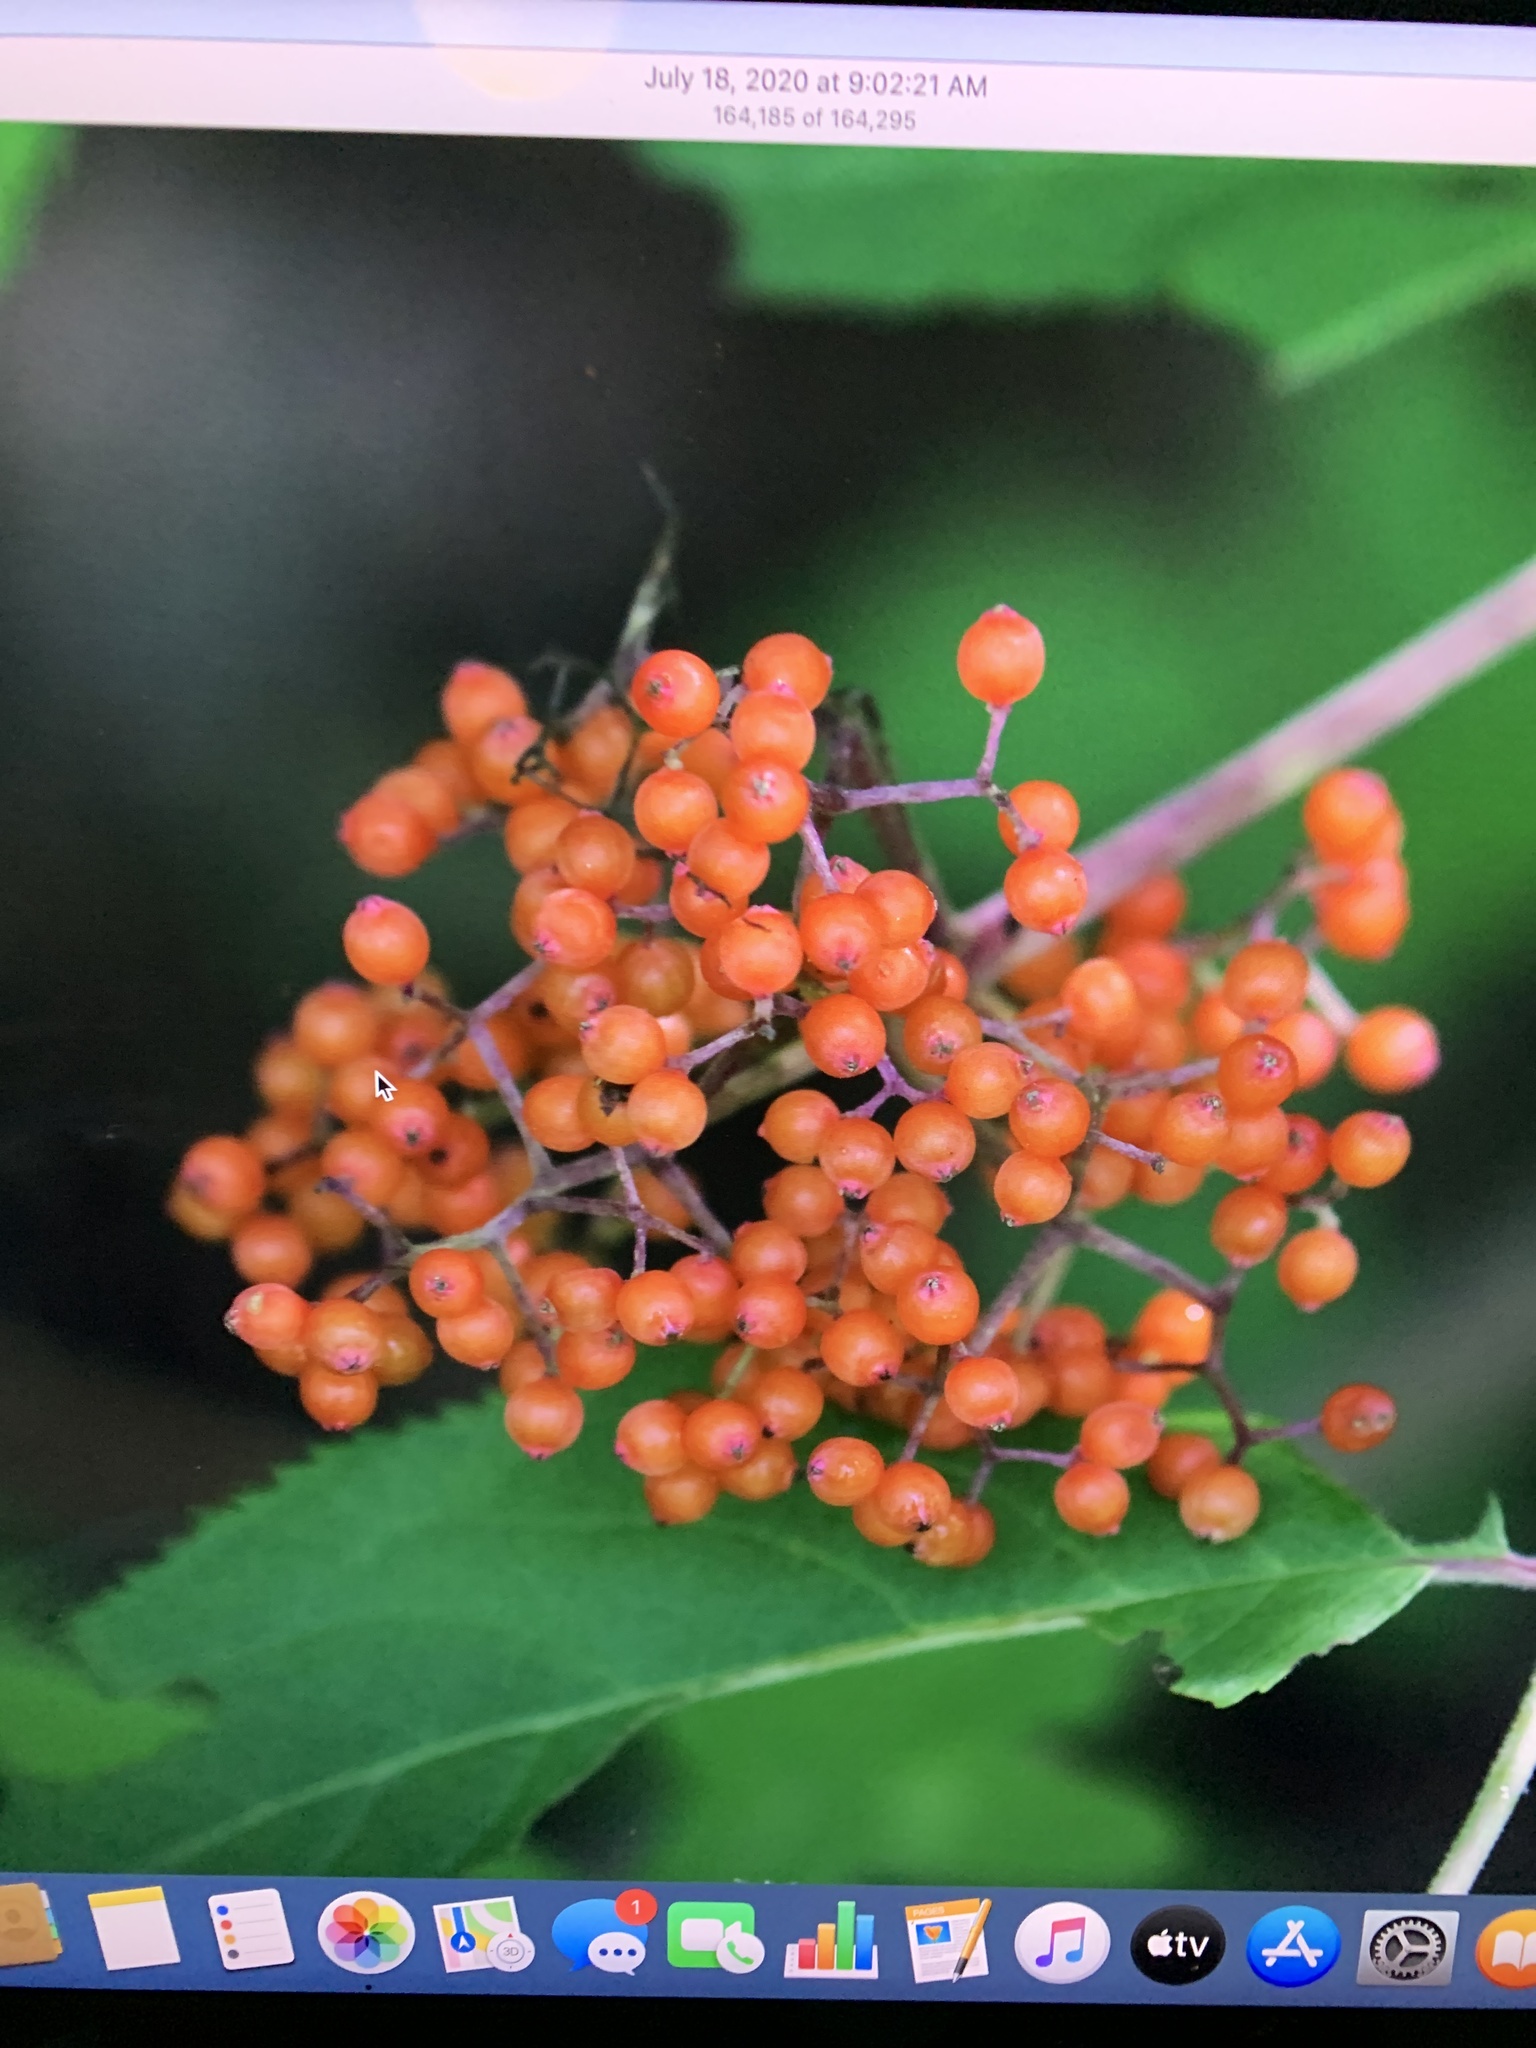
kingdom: Plantae
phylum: Tracheophyta
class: Magnoliopsida
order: Dipsacales
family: Viburnaceae
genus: Sambucus
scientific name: Sambucus racemosa
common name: Red-berried elder
